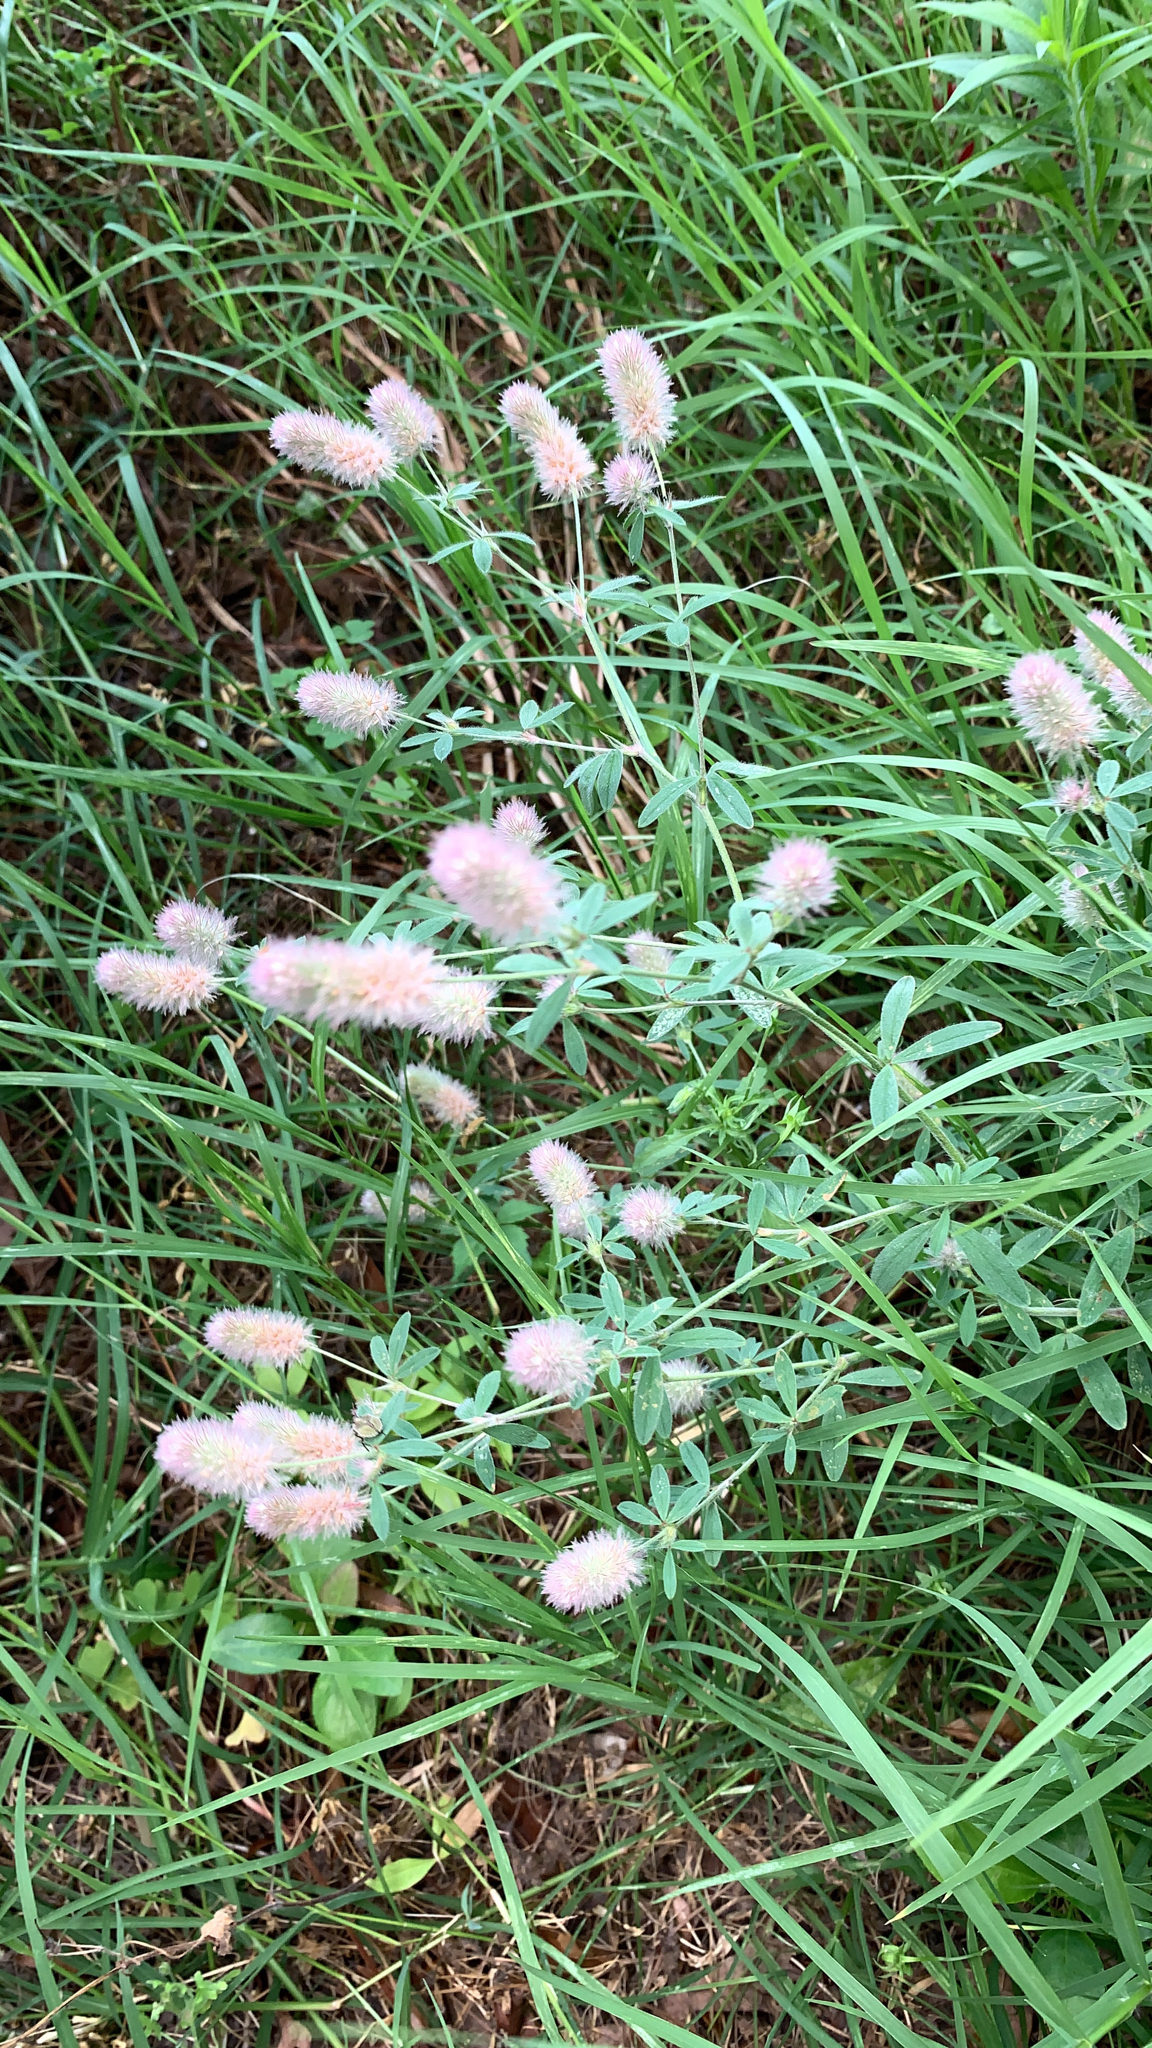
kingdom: Plantae
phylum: Tracheophyta
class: Magnoliopsida
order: Fabales
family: Fabaceae
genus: Trifolium
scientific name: Trifolium arvense
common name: Hare's-foot clover
